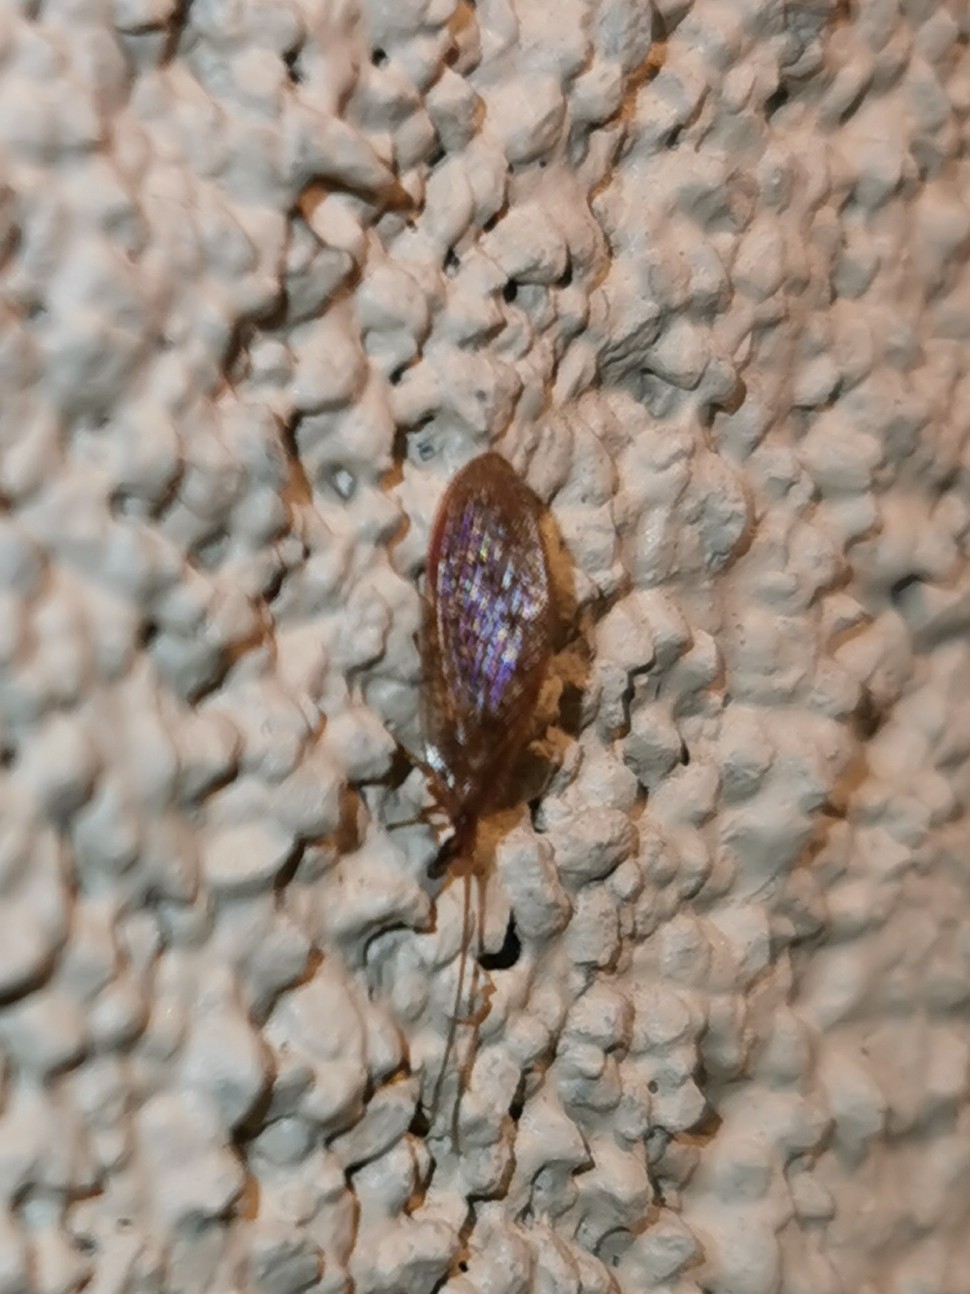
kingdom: Animalia
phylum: Arthropoda
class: Insecta
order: Neuroptera
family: Hemerobiidae
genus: Hemerobius
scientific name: Hemerobius stigma
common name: Brown pine lacewing
